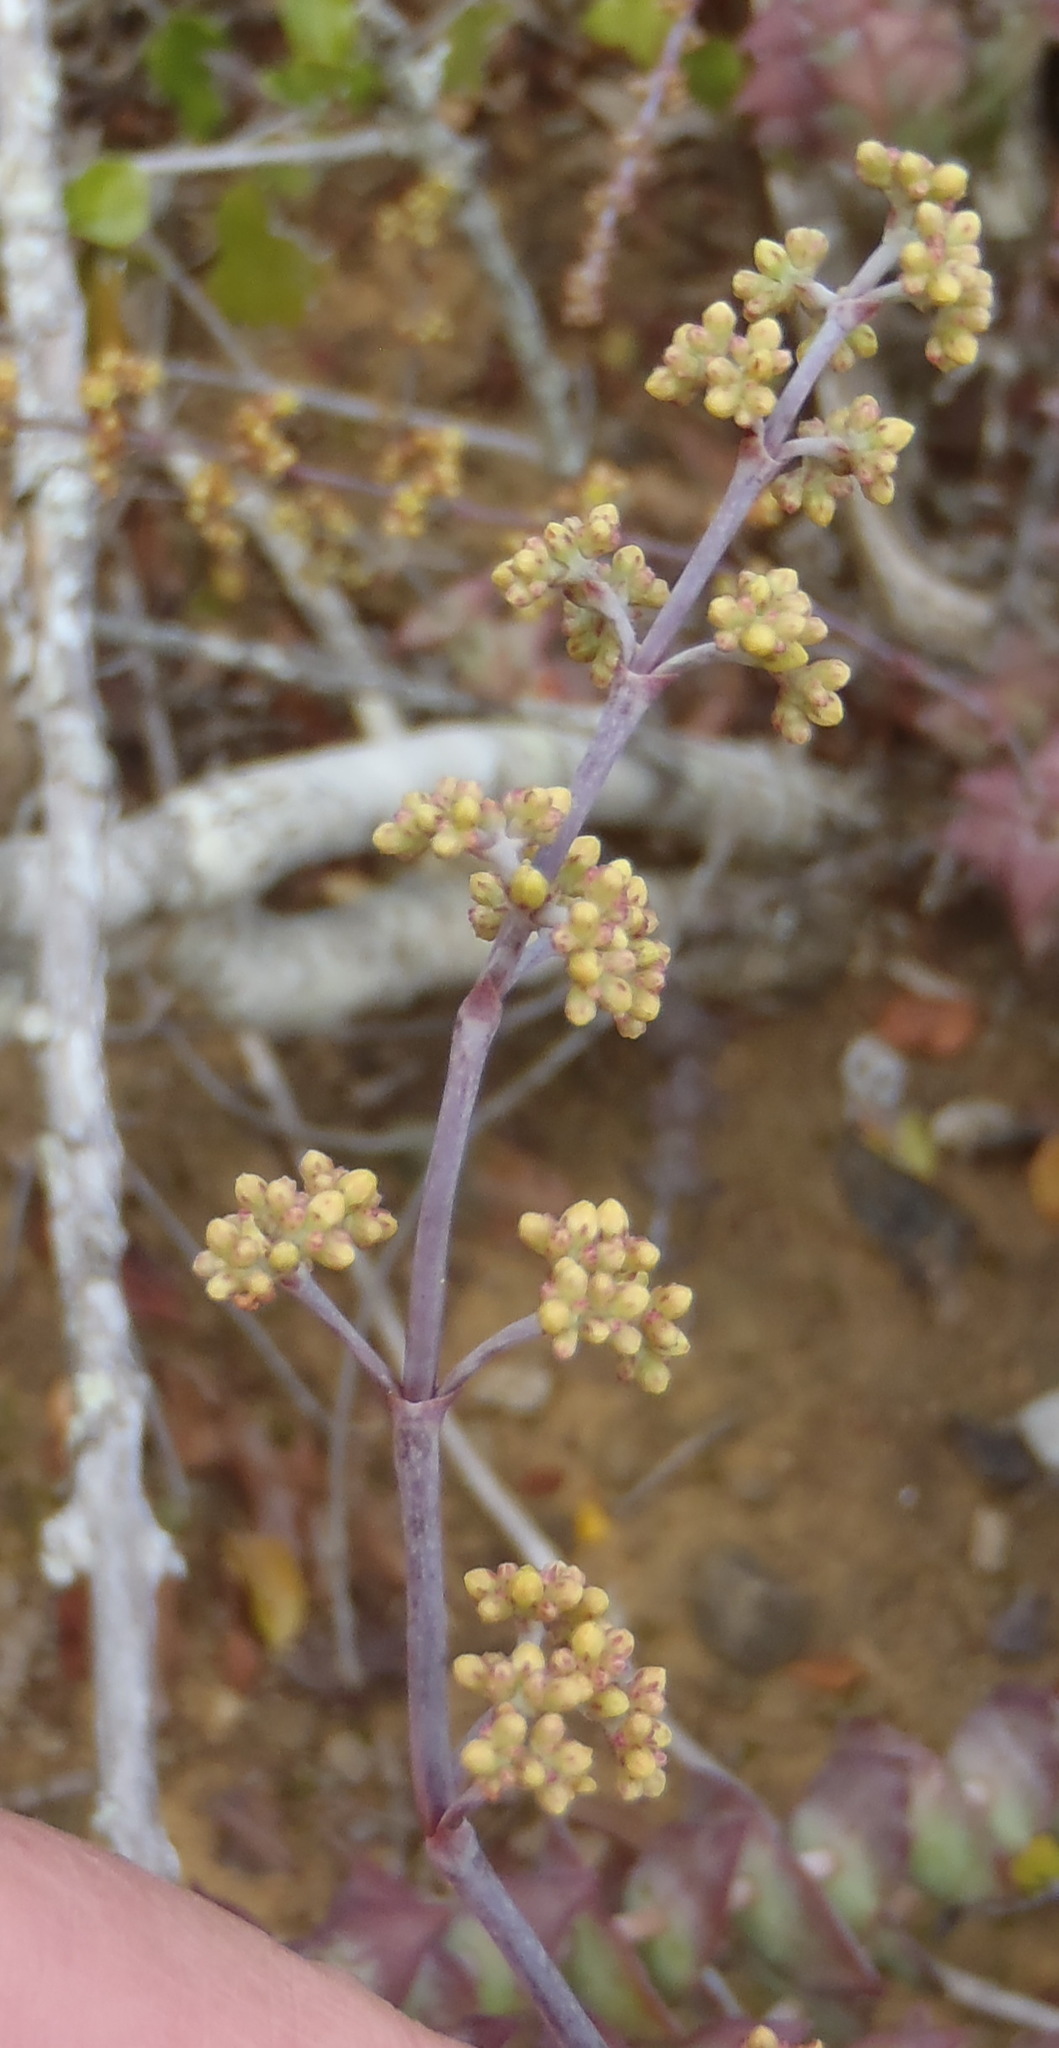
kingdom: Plantae
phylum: Tracheophyta
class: Magnoliopsida
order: Saxifragales
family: Crassulaceae
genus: Crassula
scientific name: Crassula perforata
